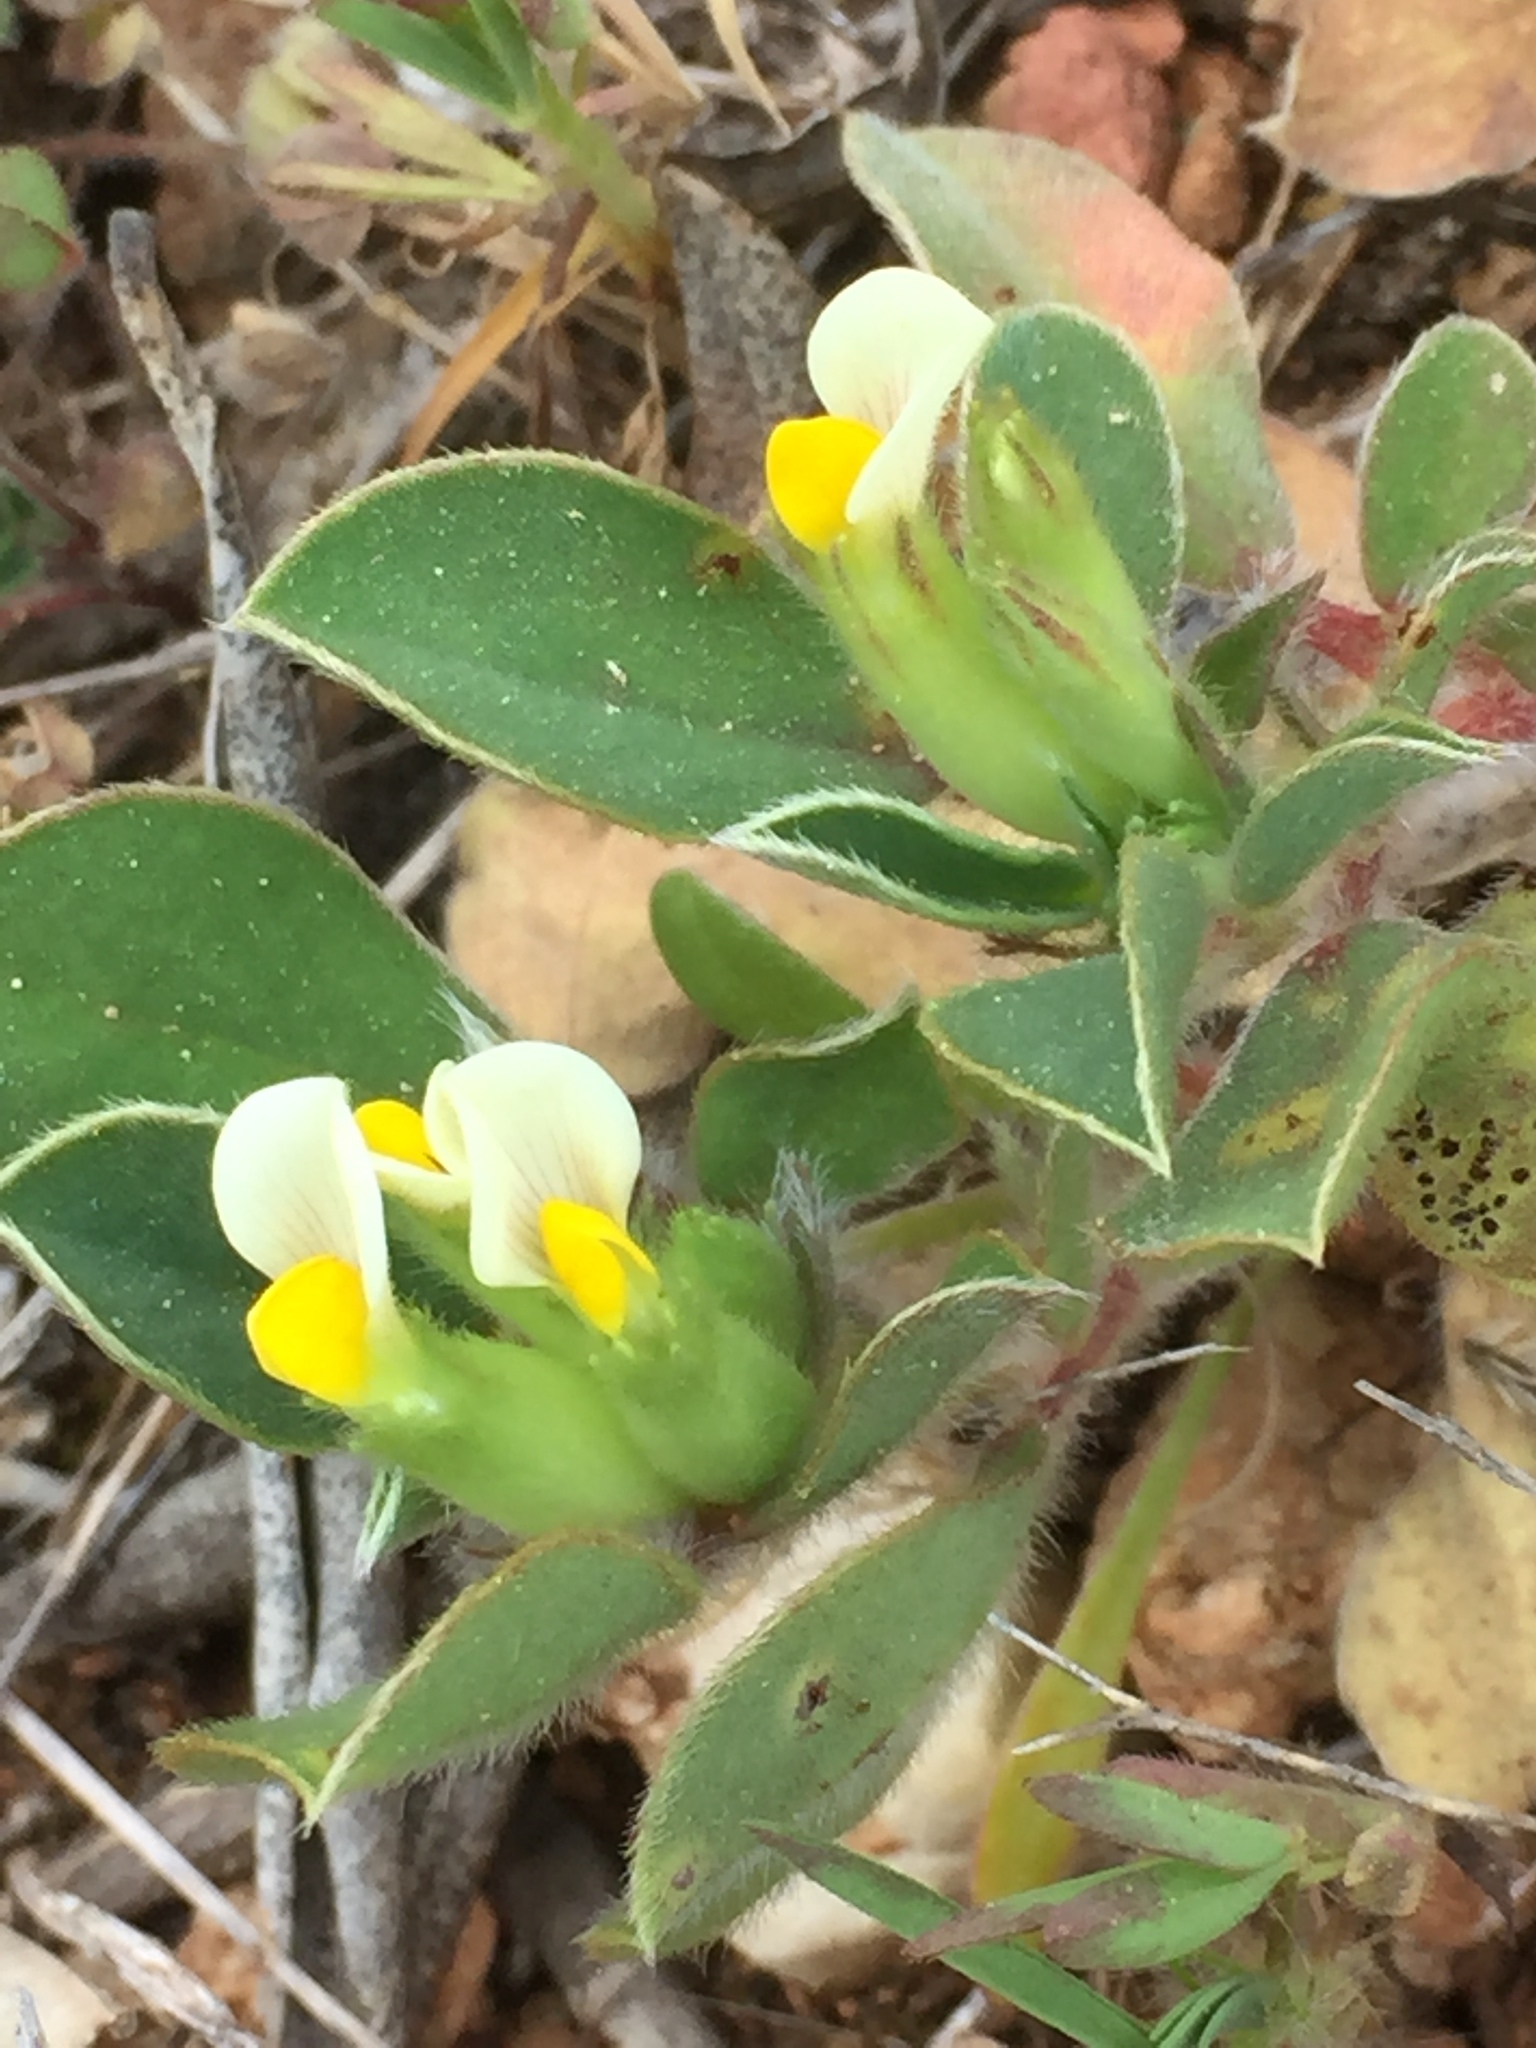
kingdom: Plantae
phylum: Tracheophyta
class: Magnoliopsida
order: Fabales
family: Fabaceae
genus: Tripodion
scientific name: Tripodion tetraphyllum
